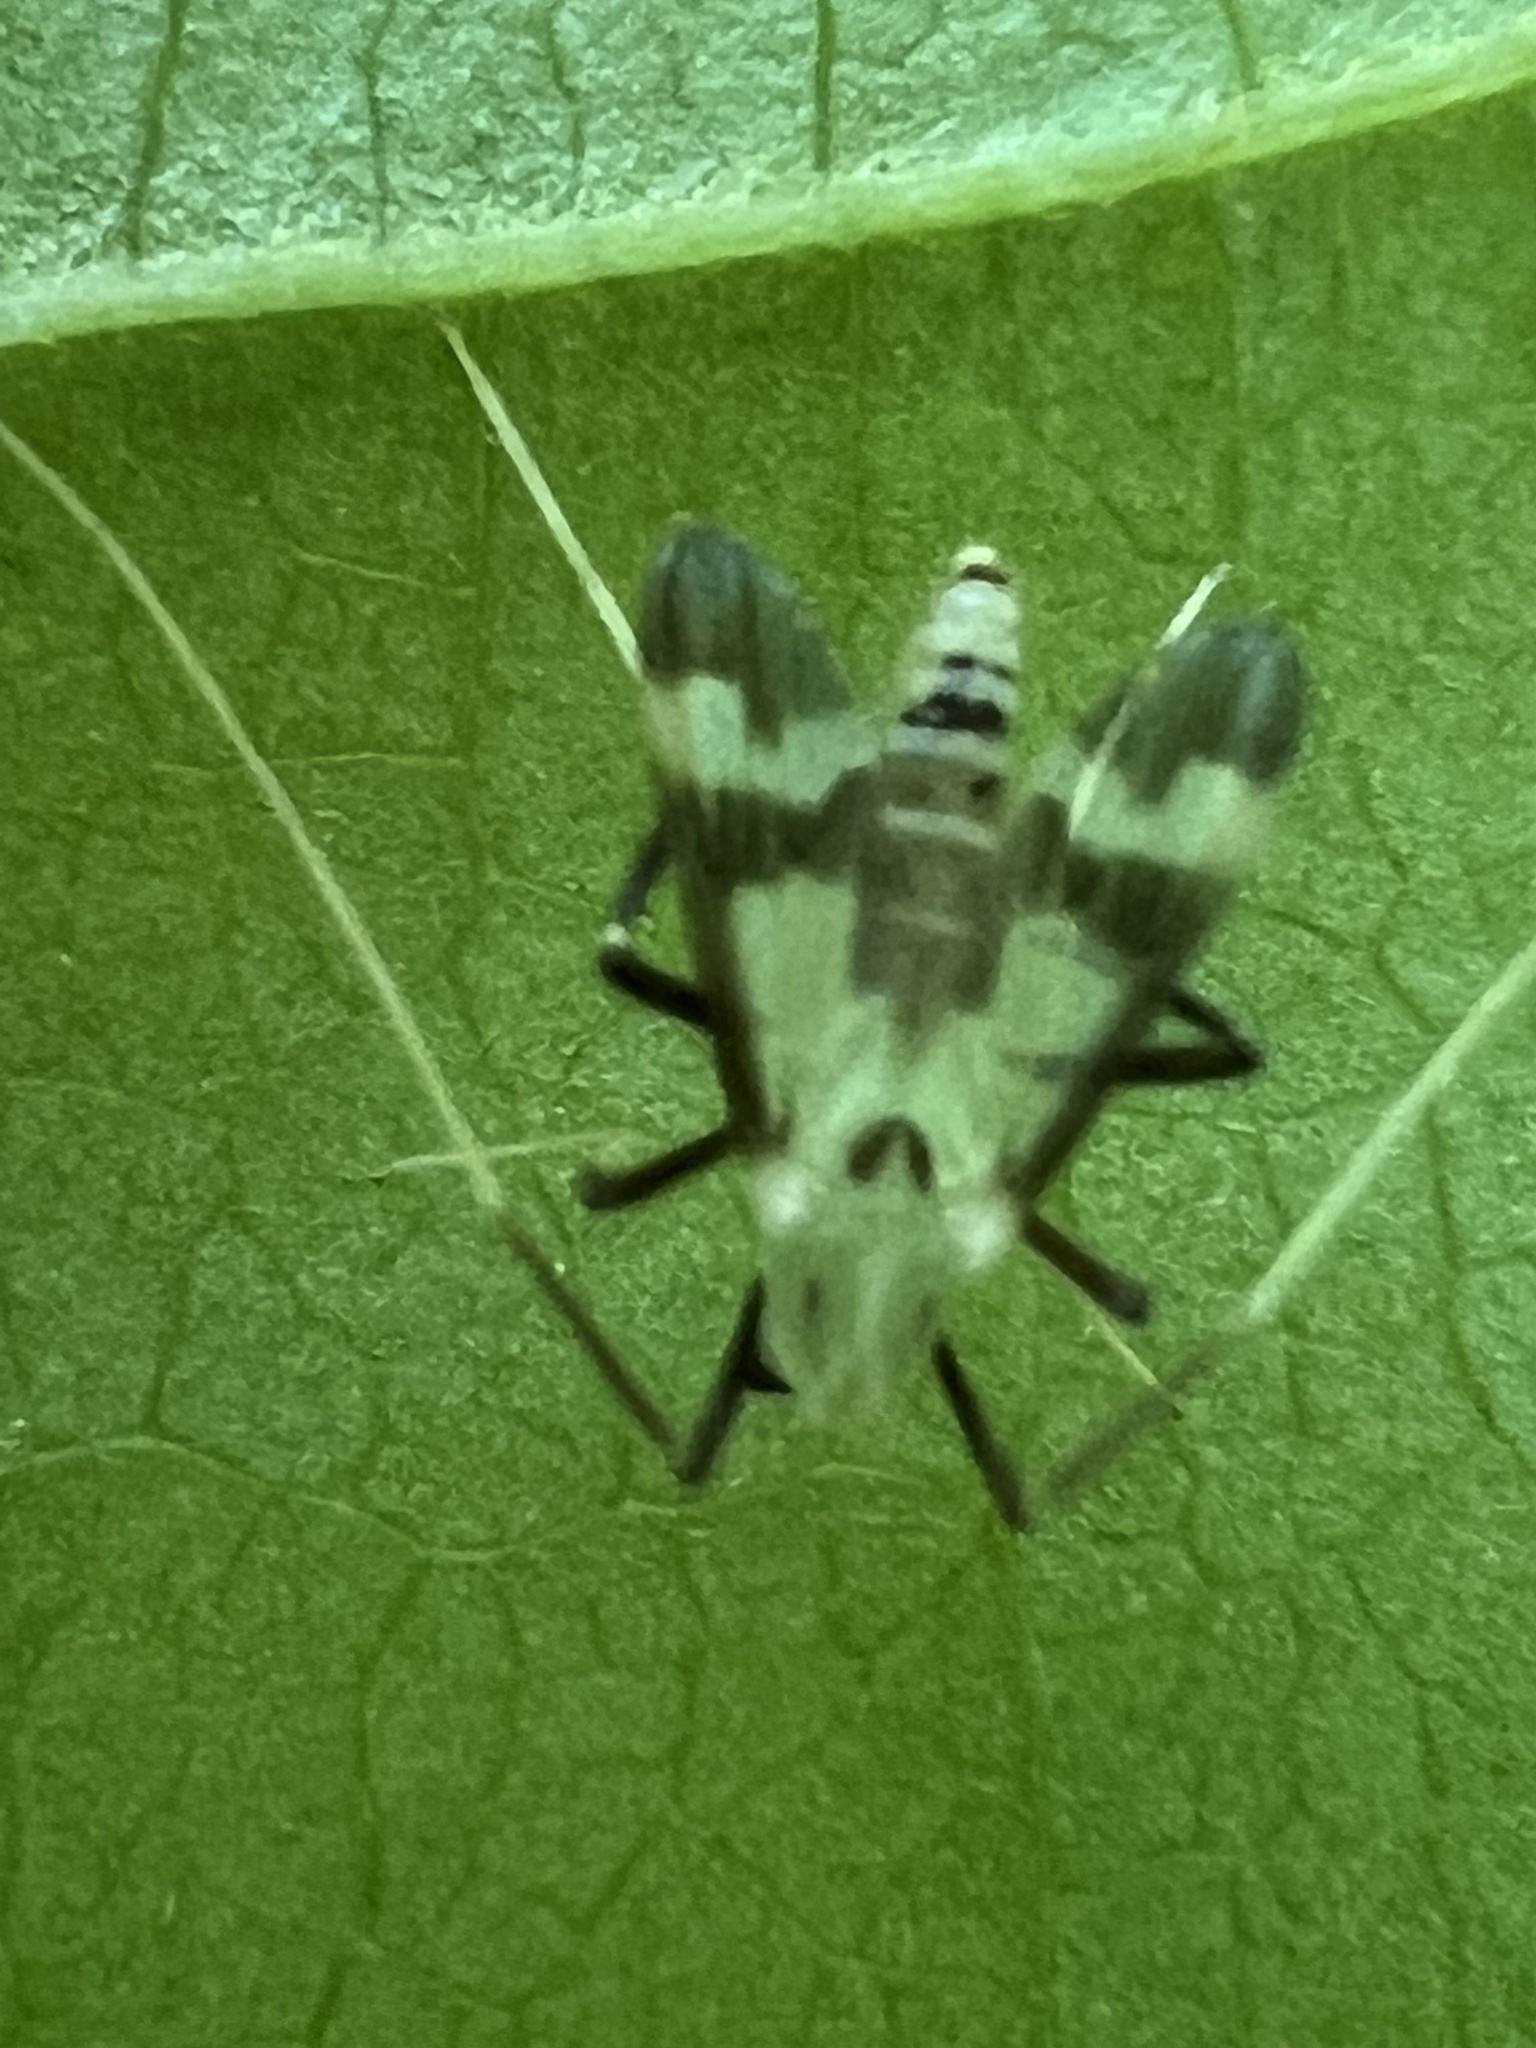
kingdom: Animalia
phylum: Arthropoda
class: Insecta
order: Diptera
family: Chironomidae
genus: Stenochironomus
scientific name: Stenochironomus hilaris
